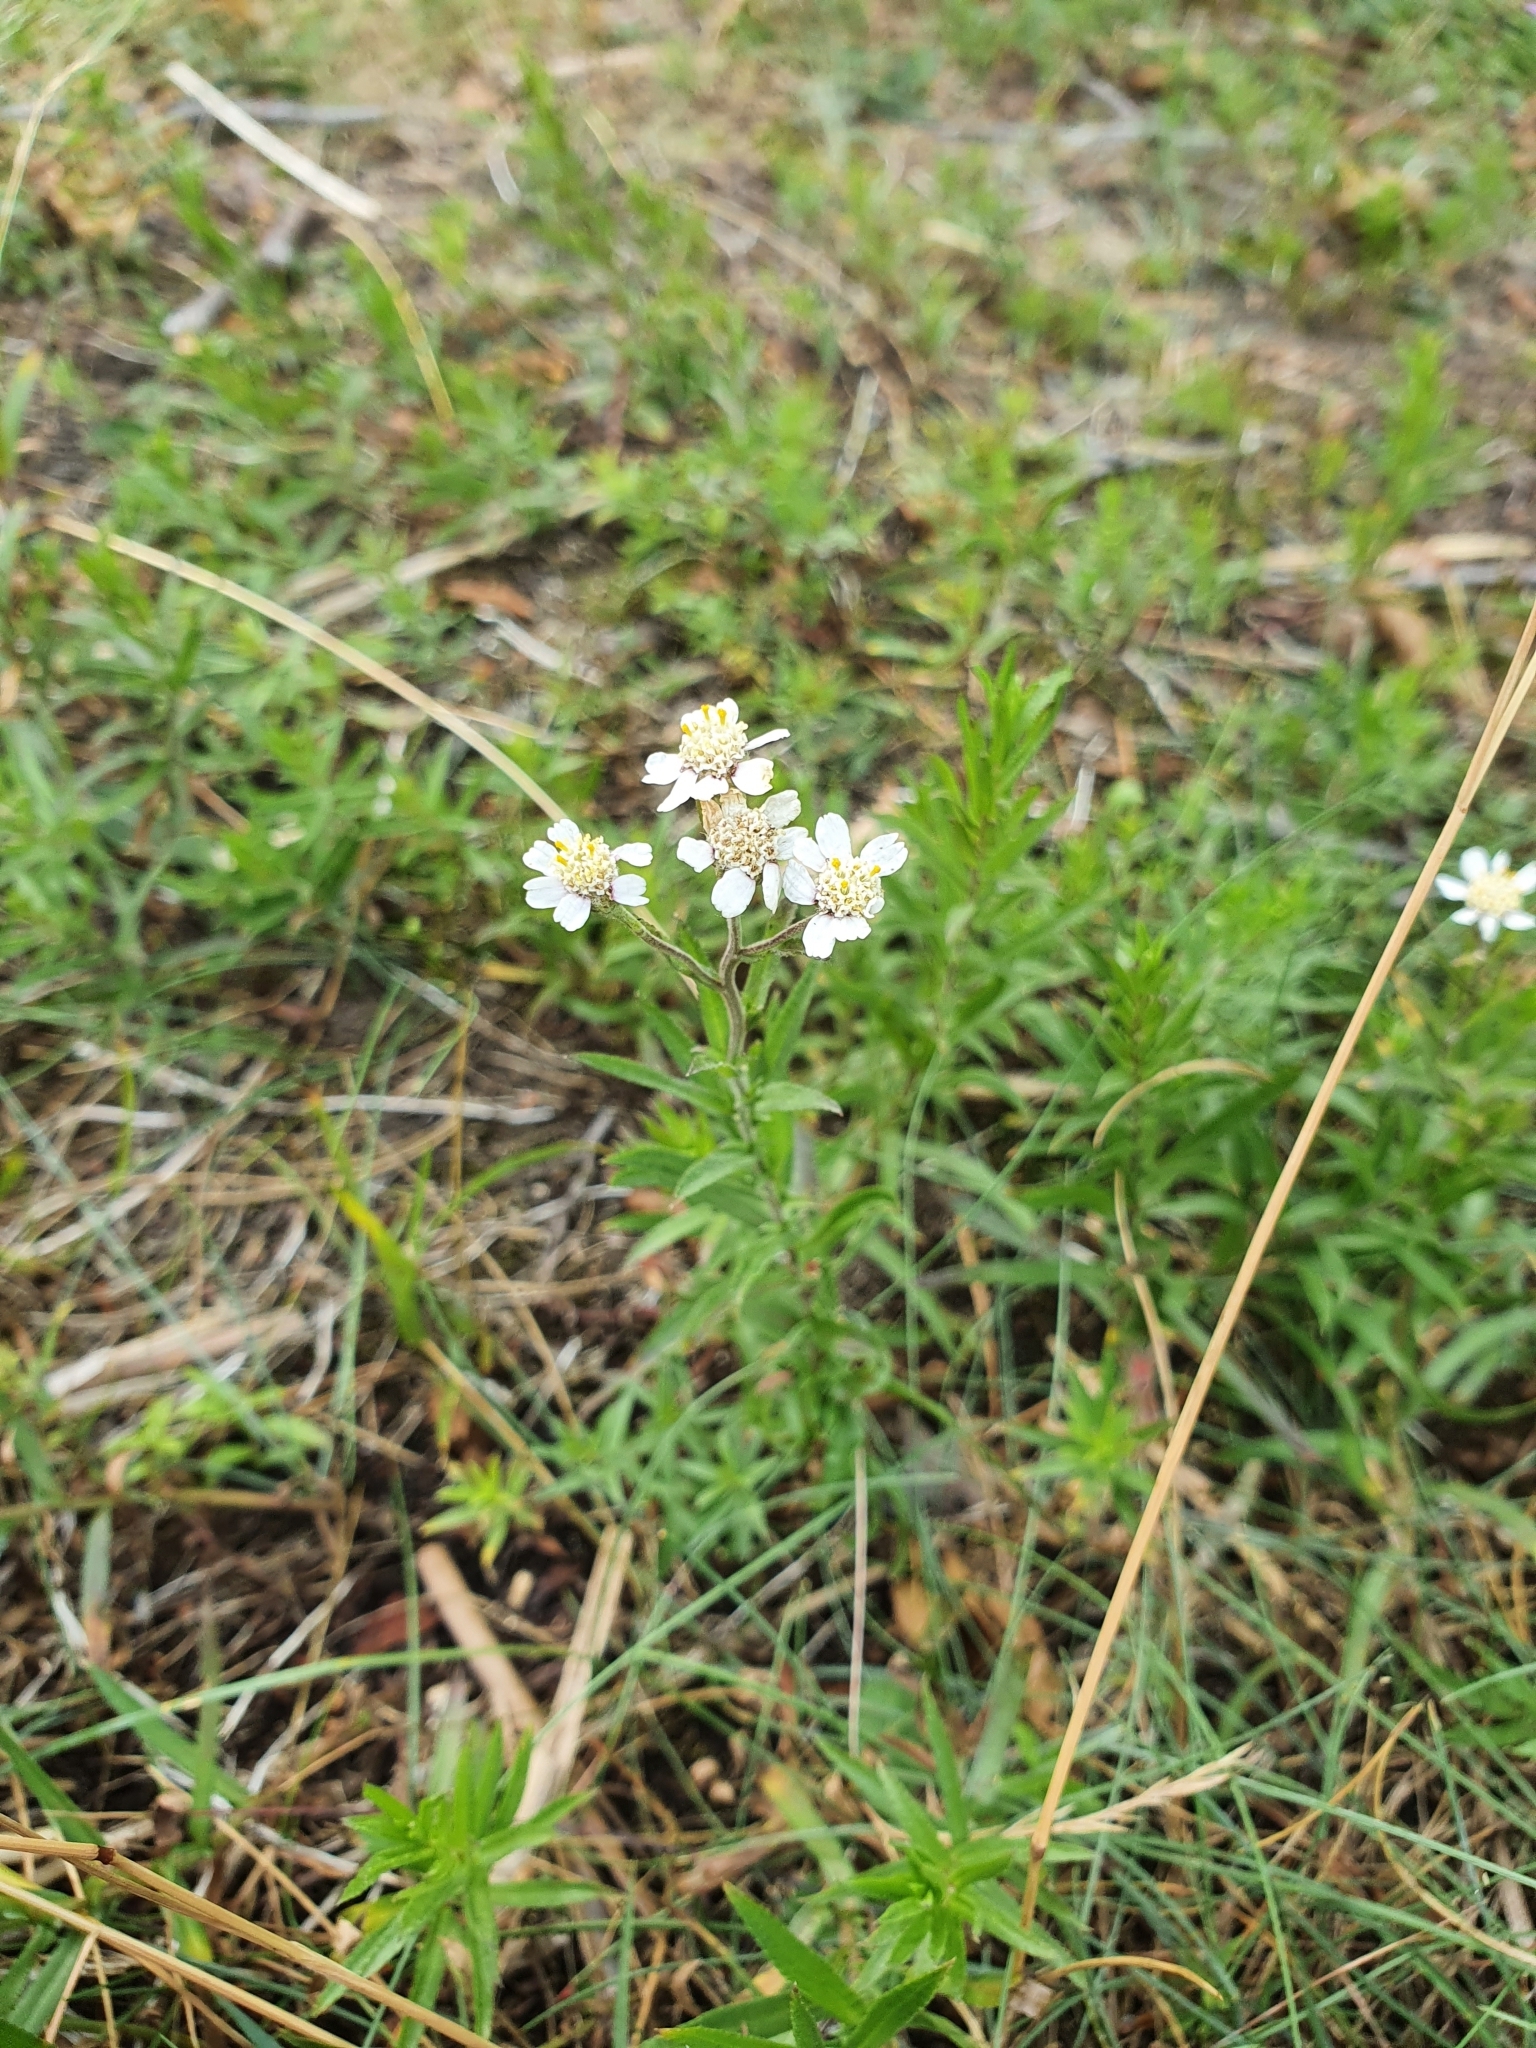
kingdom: Plantae
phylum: Tracheophyta
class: Magnoliopsida
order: Asterales
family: Asteraceae
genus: Achillea
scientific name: Achillea ptarmica
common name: Sneezeweed
